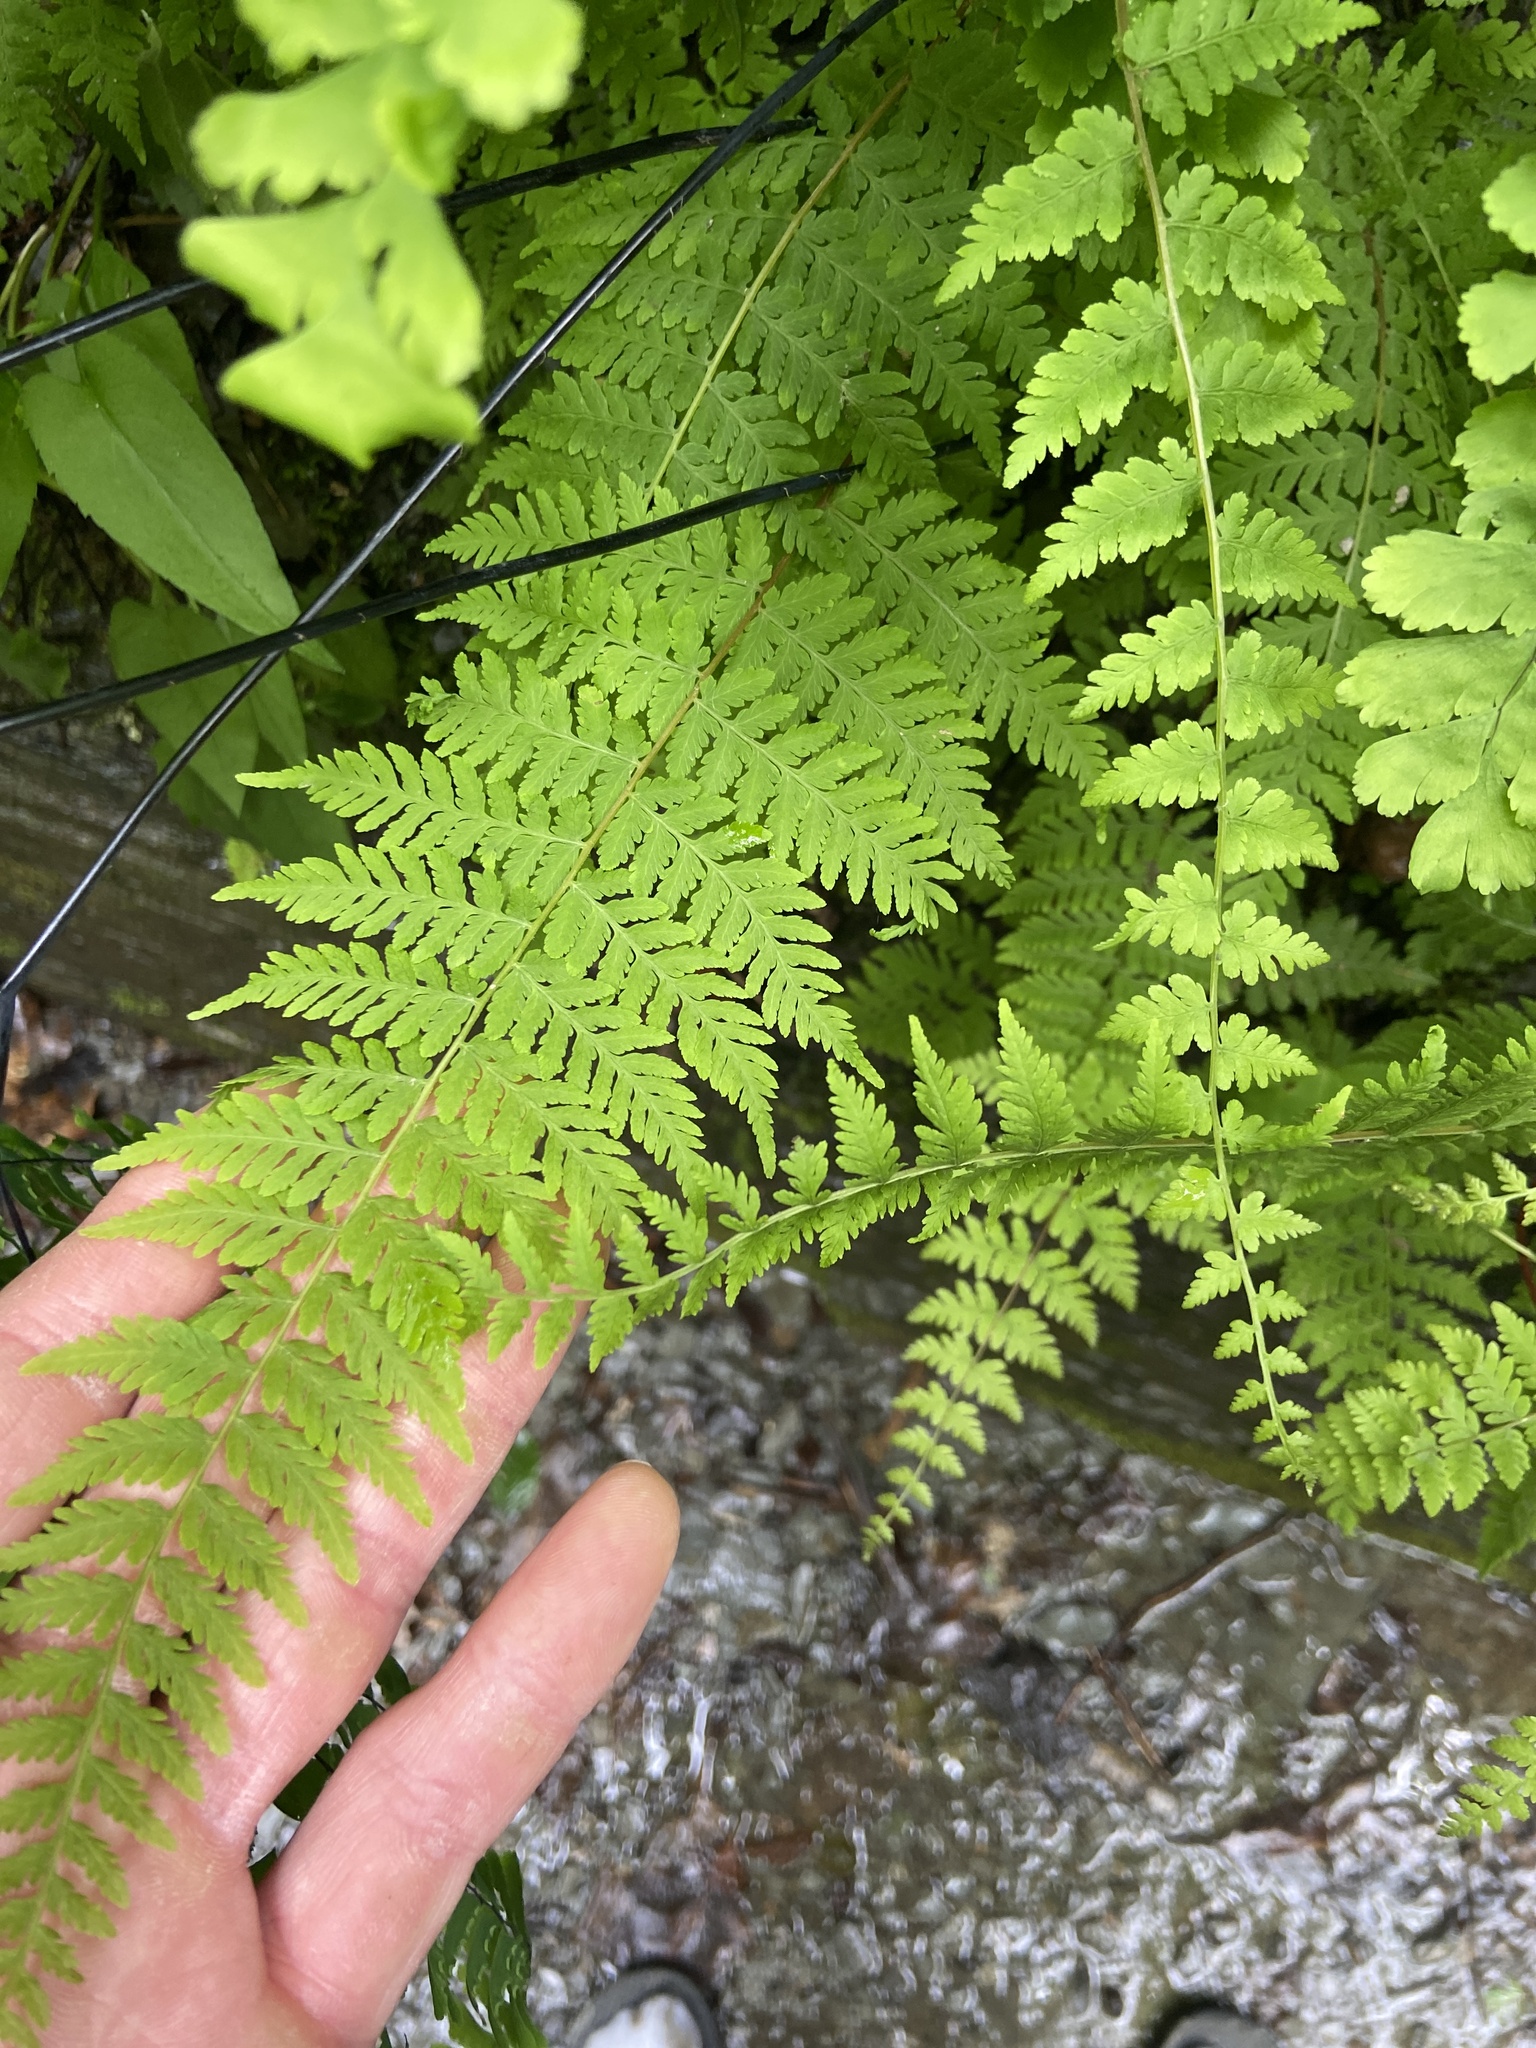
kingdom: Plantae
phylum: Tracheophyta
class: Polypodiopsida
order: Polypodiales
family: Cystopteridaceae
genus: Cystopteris
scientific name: Cystopteris bulbifera
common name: Bulblet bladder fern
